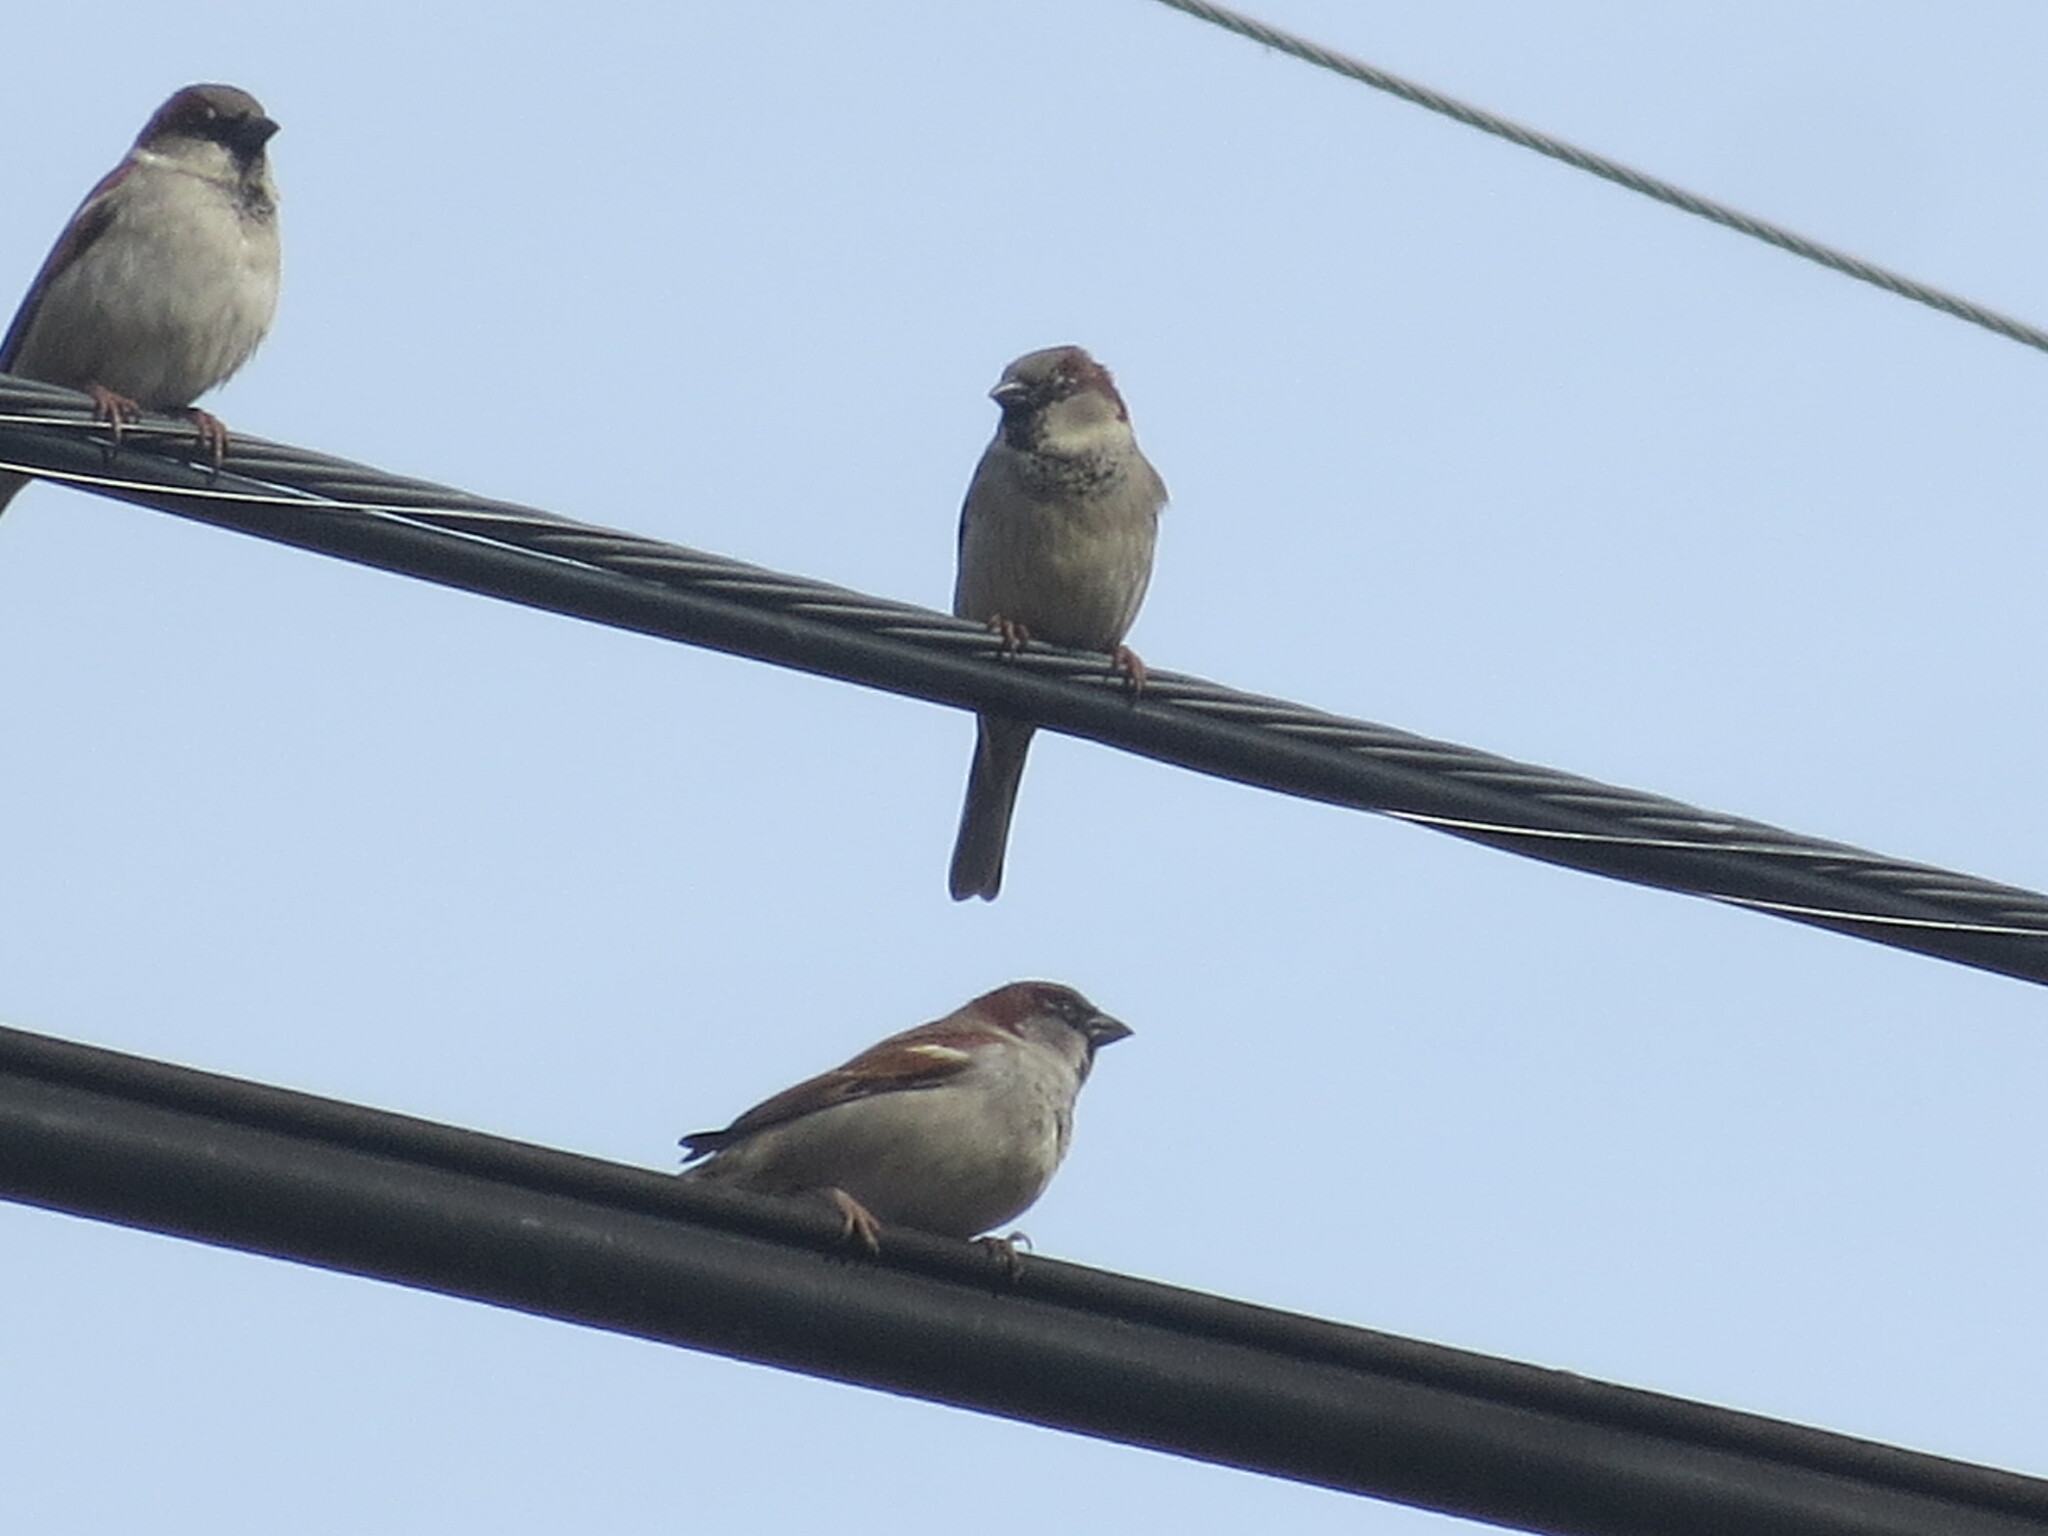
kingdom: Animalia
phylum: Chordata
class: Aves
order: Passeriformes
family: Passeridae
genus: Passer
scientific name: Passer domesticus
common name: House sparrow
